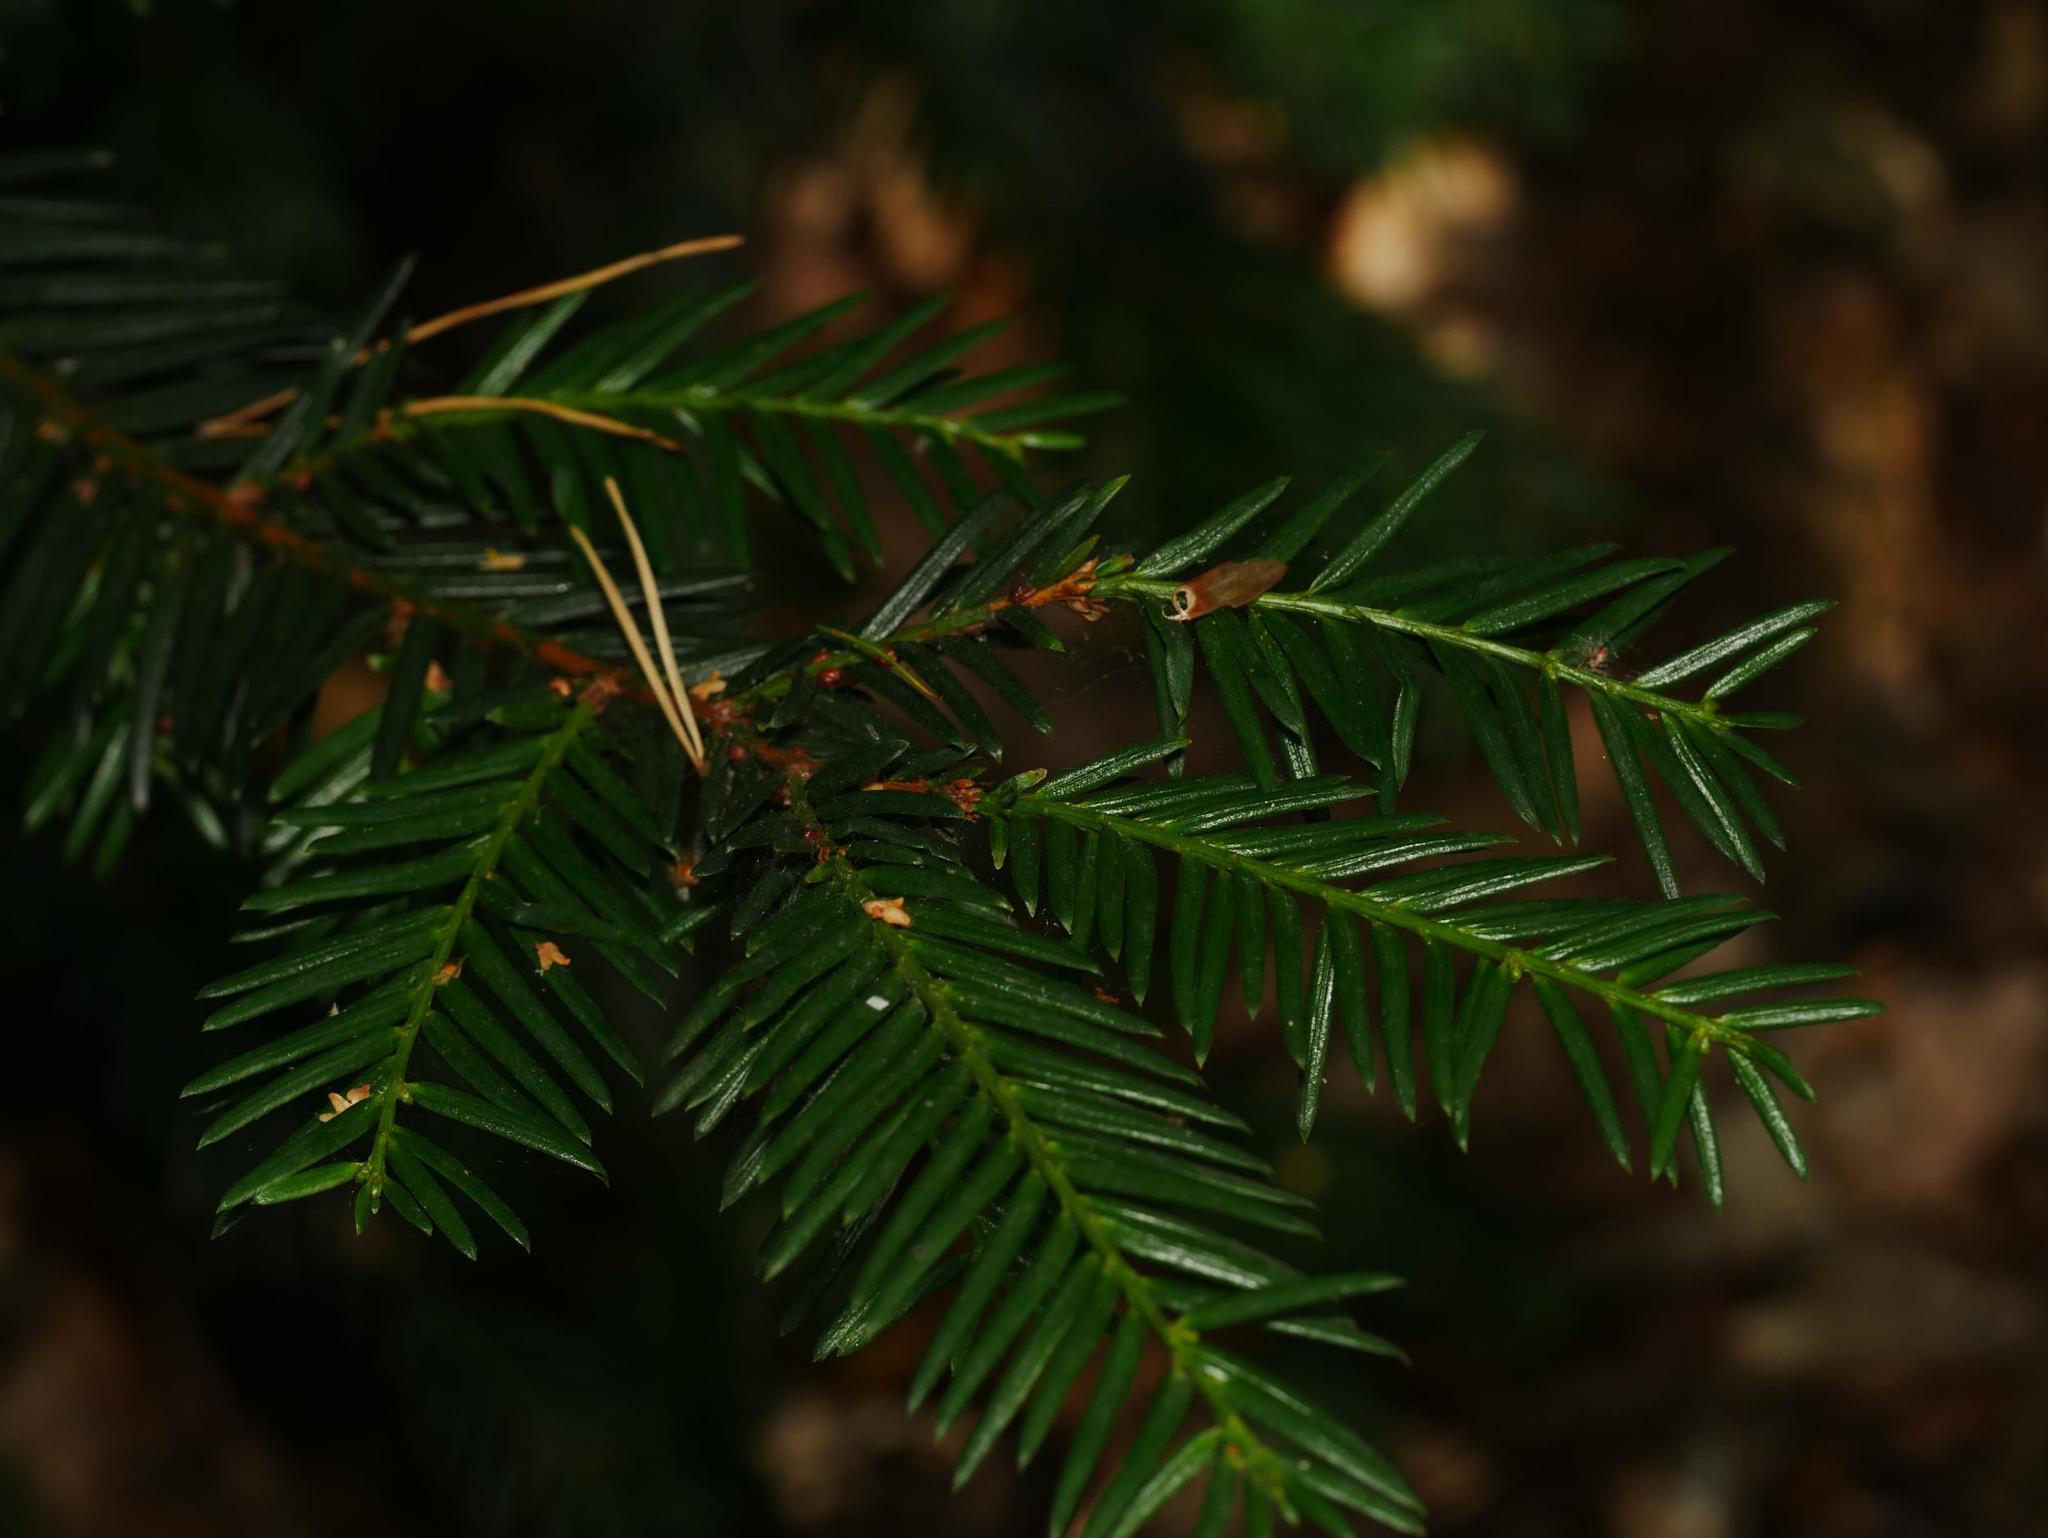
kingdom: Plantae
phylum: Tracheophyta
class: Pinopsida
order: Pinales
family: Taxaceae
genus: Taxus
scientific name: Taxus baccata
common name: Yew
